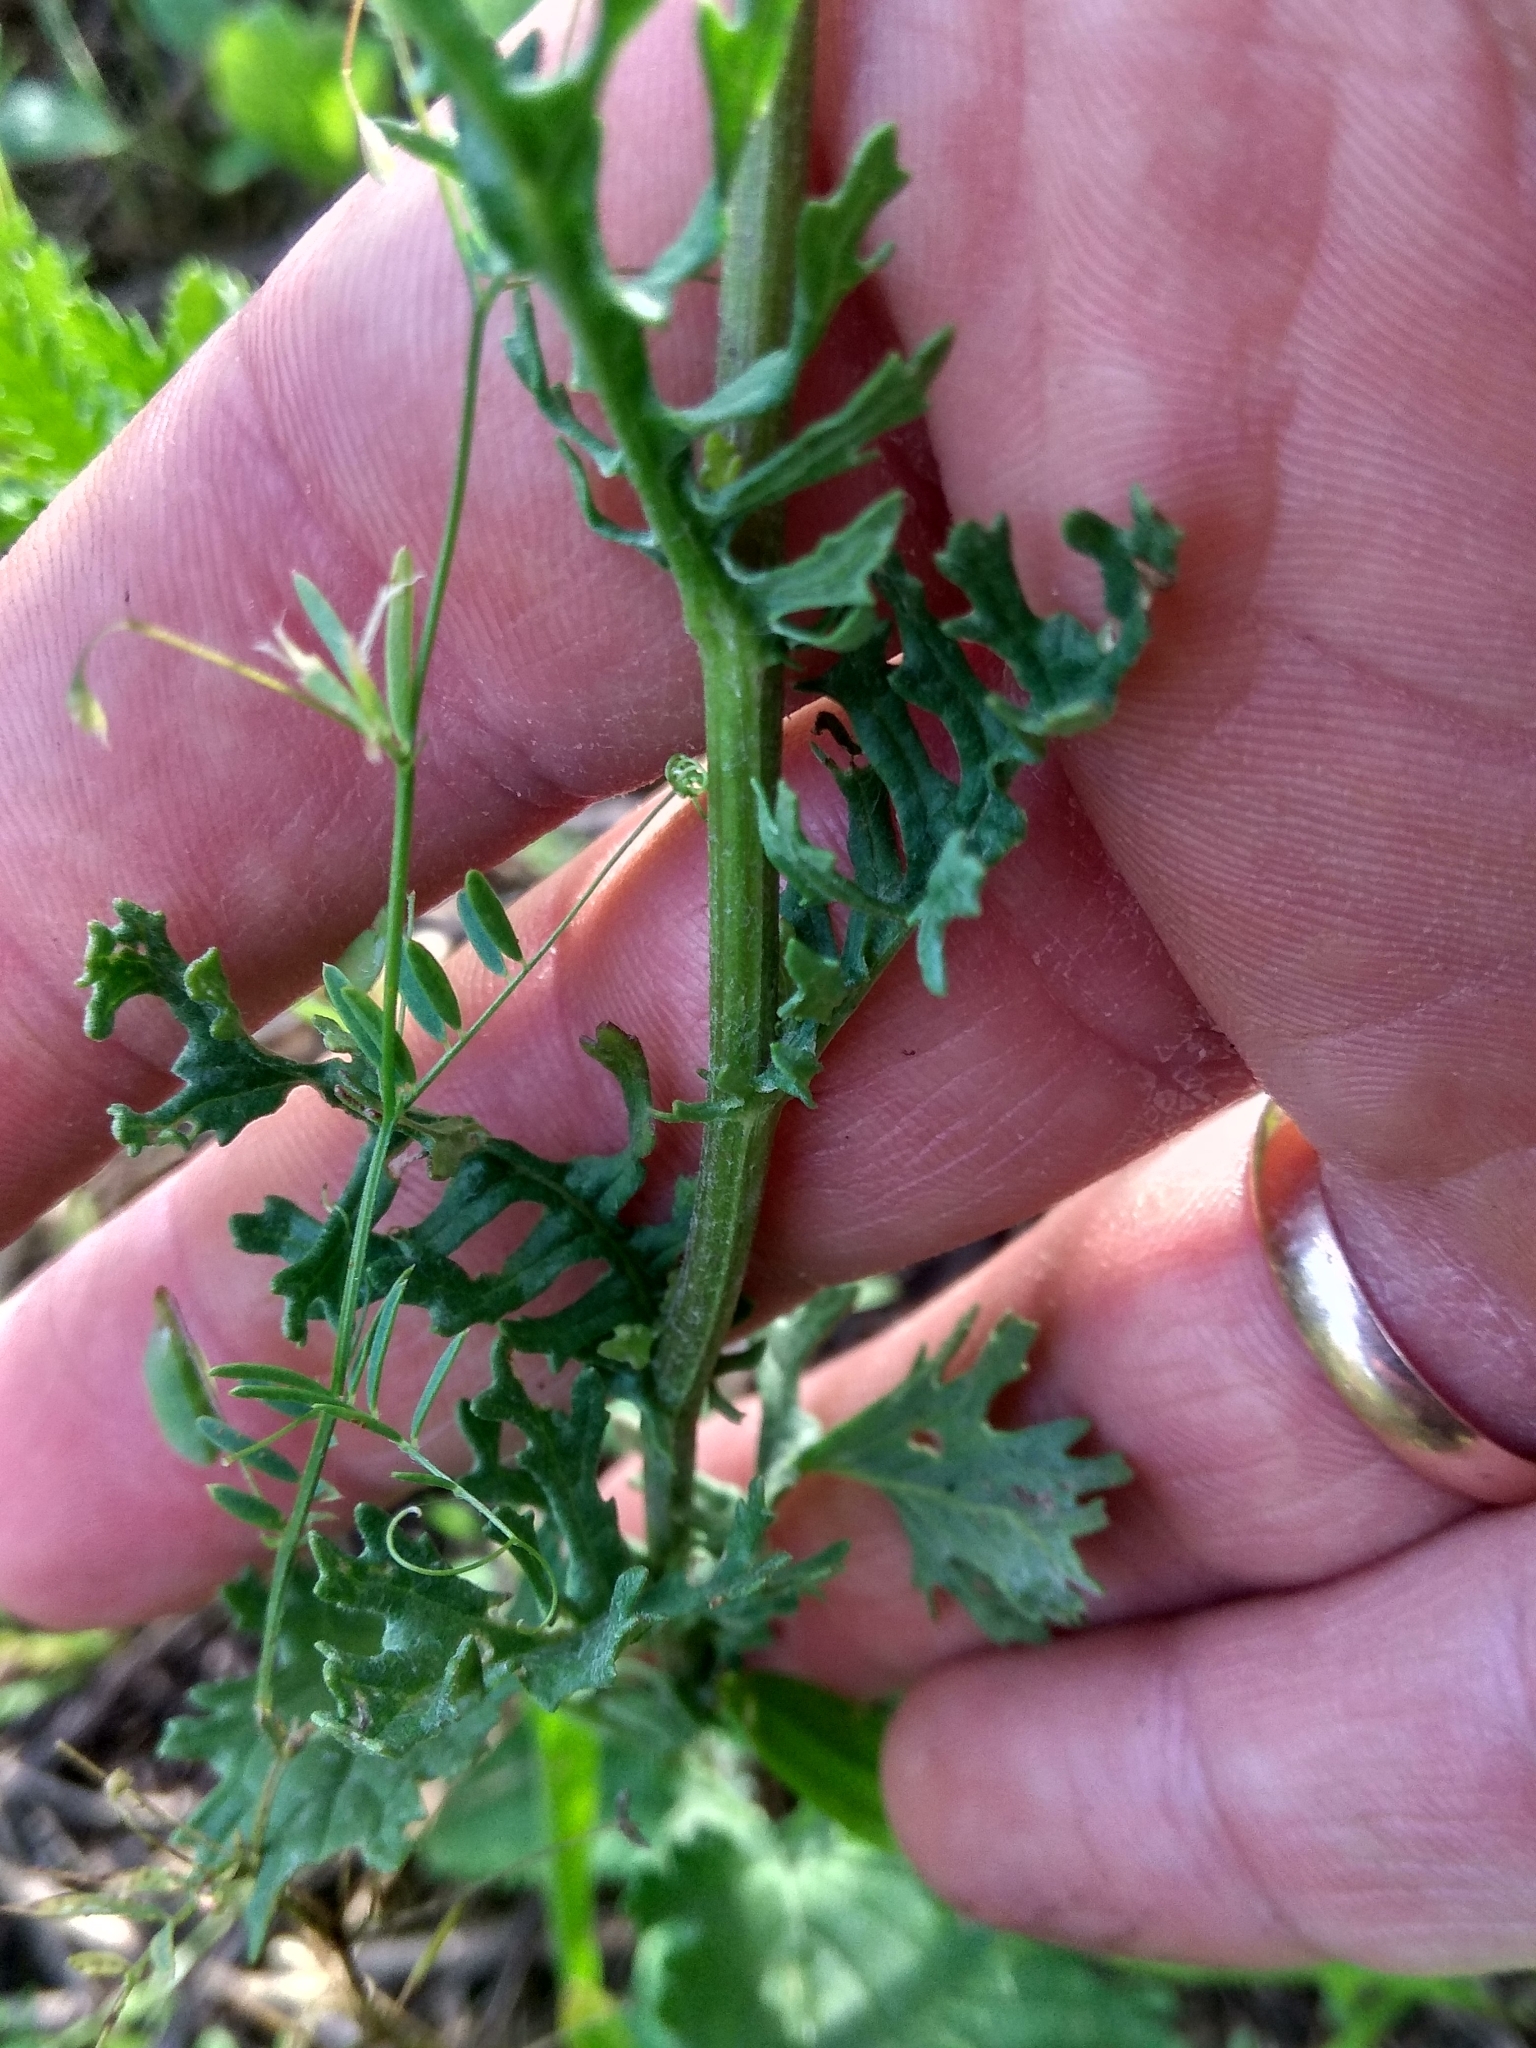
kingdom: Plantae
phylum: Tracheophyta
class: Magnoliopsida
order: Asterales
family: Asteraceae
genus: Jacobaea
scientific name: Jacobaea vulgaris
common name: Stinking willie
